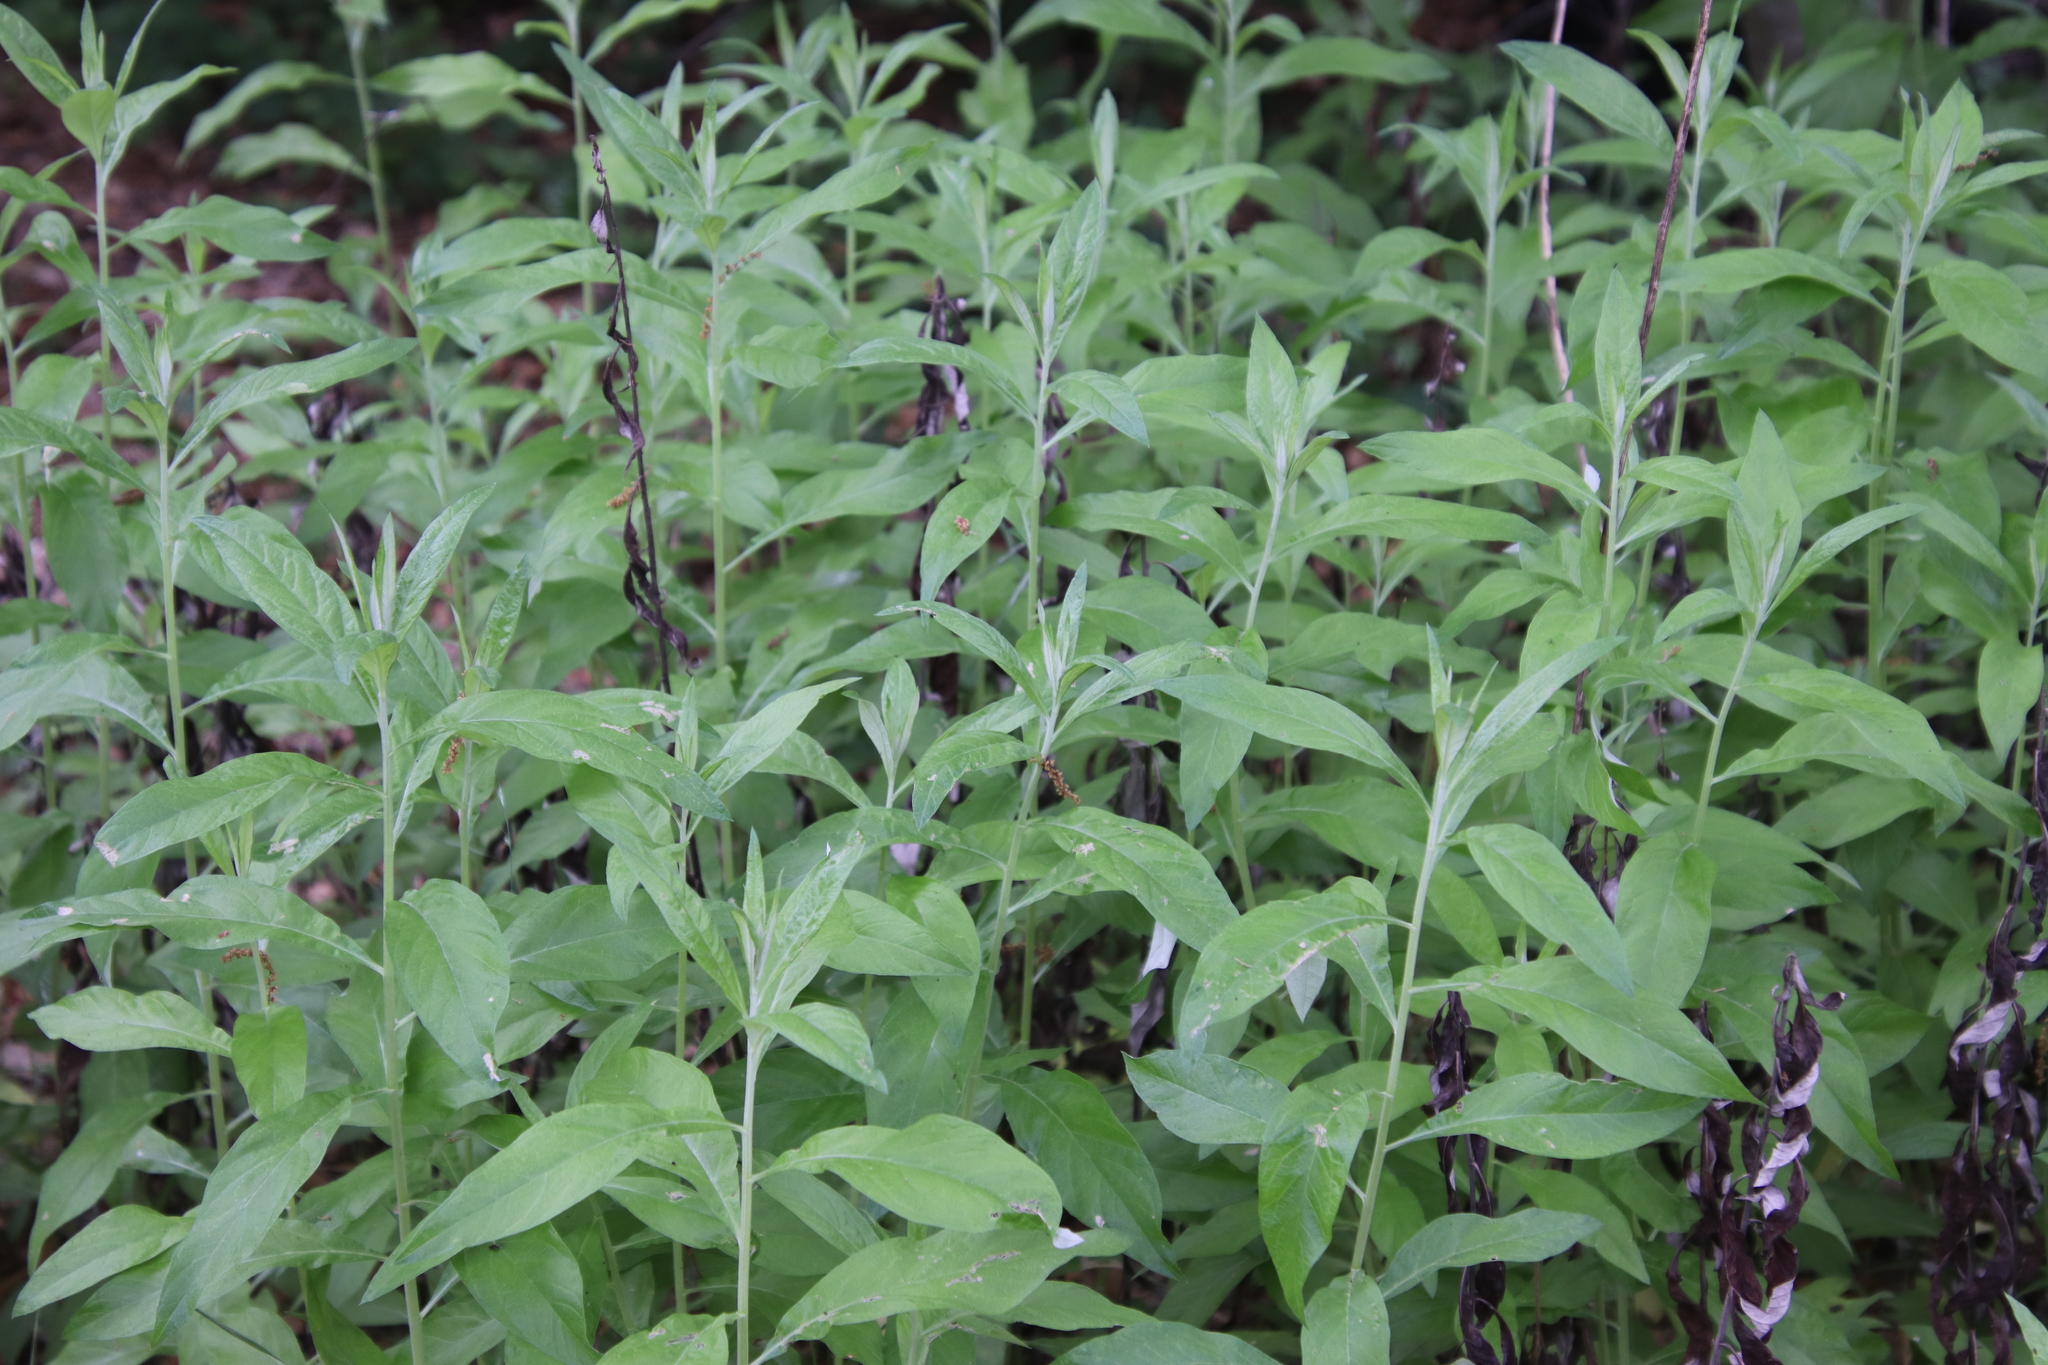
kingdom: Plantae
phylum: Tracheophyta
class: Magnoliopsida
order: Asterales
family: Asteraceae
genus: Artemisia
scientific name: Artemisia douglasiana
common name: Northwest mugwort
